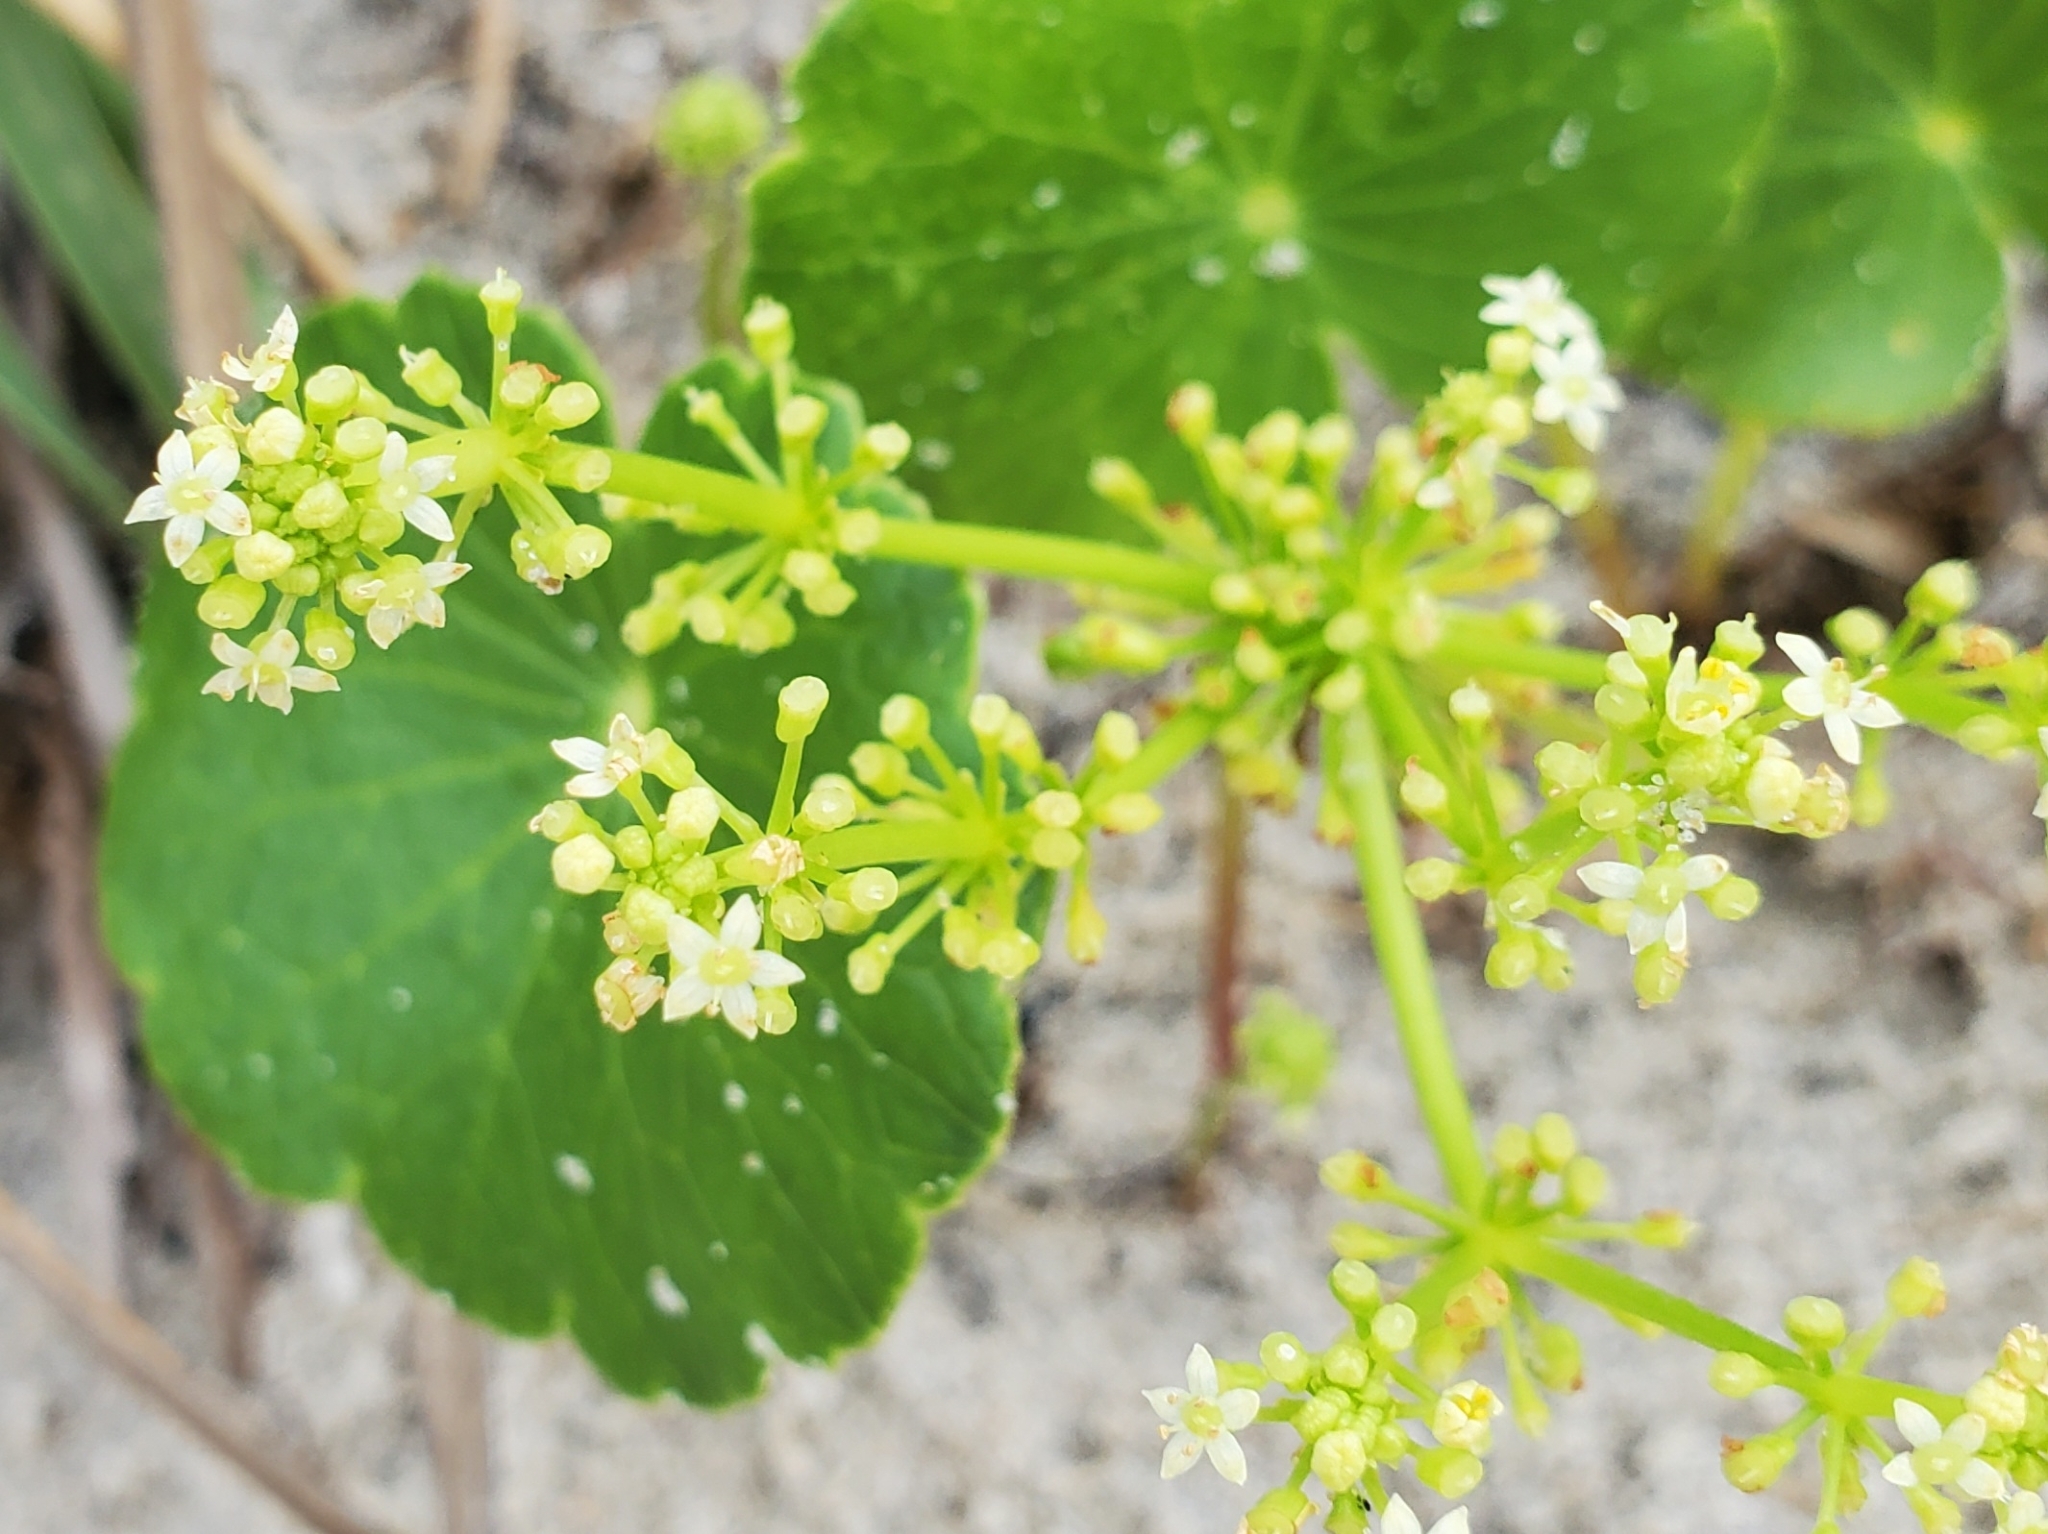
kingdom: Plantae
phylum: Tracheophyta
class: Magnoliopsida
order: Apiales
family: Araliaceae
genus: Hydrocotyle
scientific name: Hydrocotyle bonariensis
